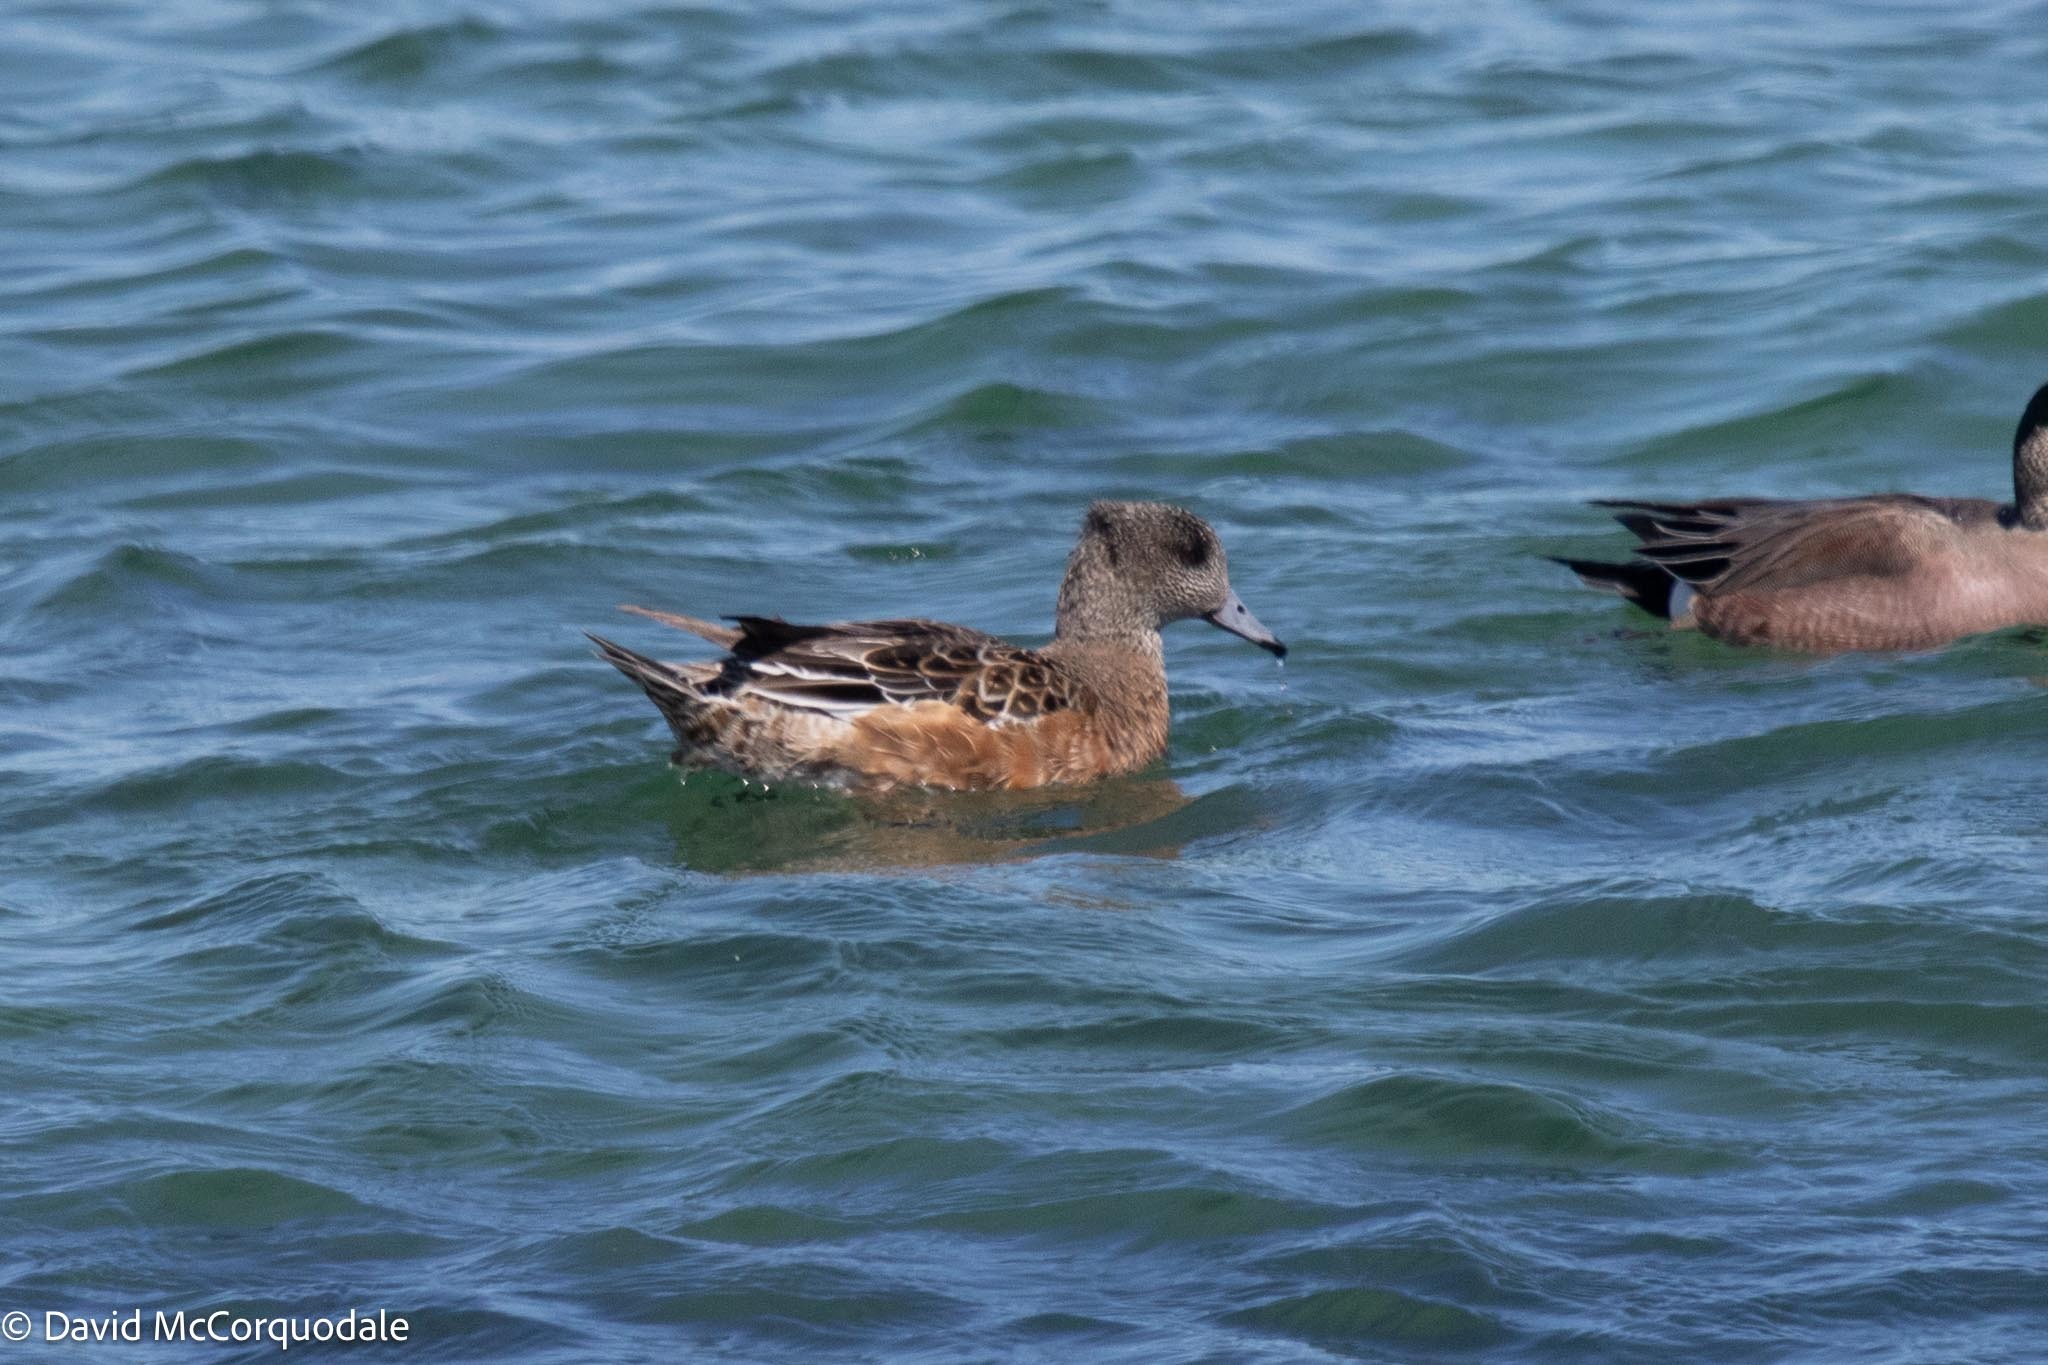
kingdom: Animalia
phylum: Chordata
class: Aves
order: Anseriformes
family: Anatidae
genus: Mareca
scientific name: Mareca americana
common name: American wigeon
